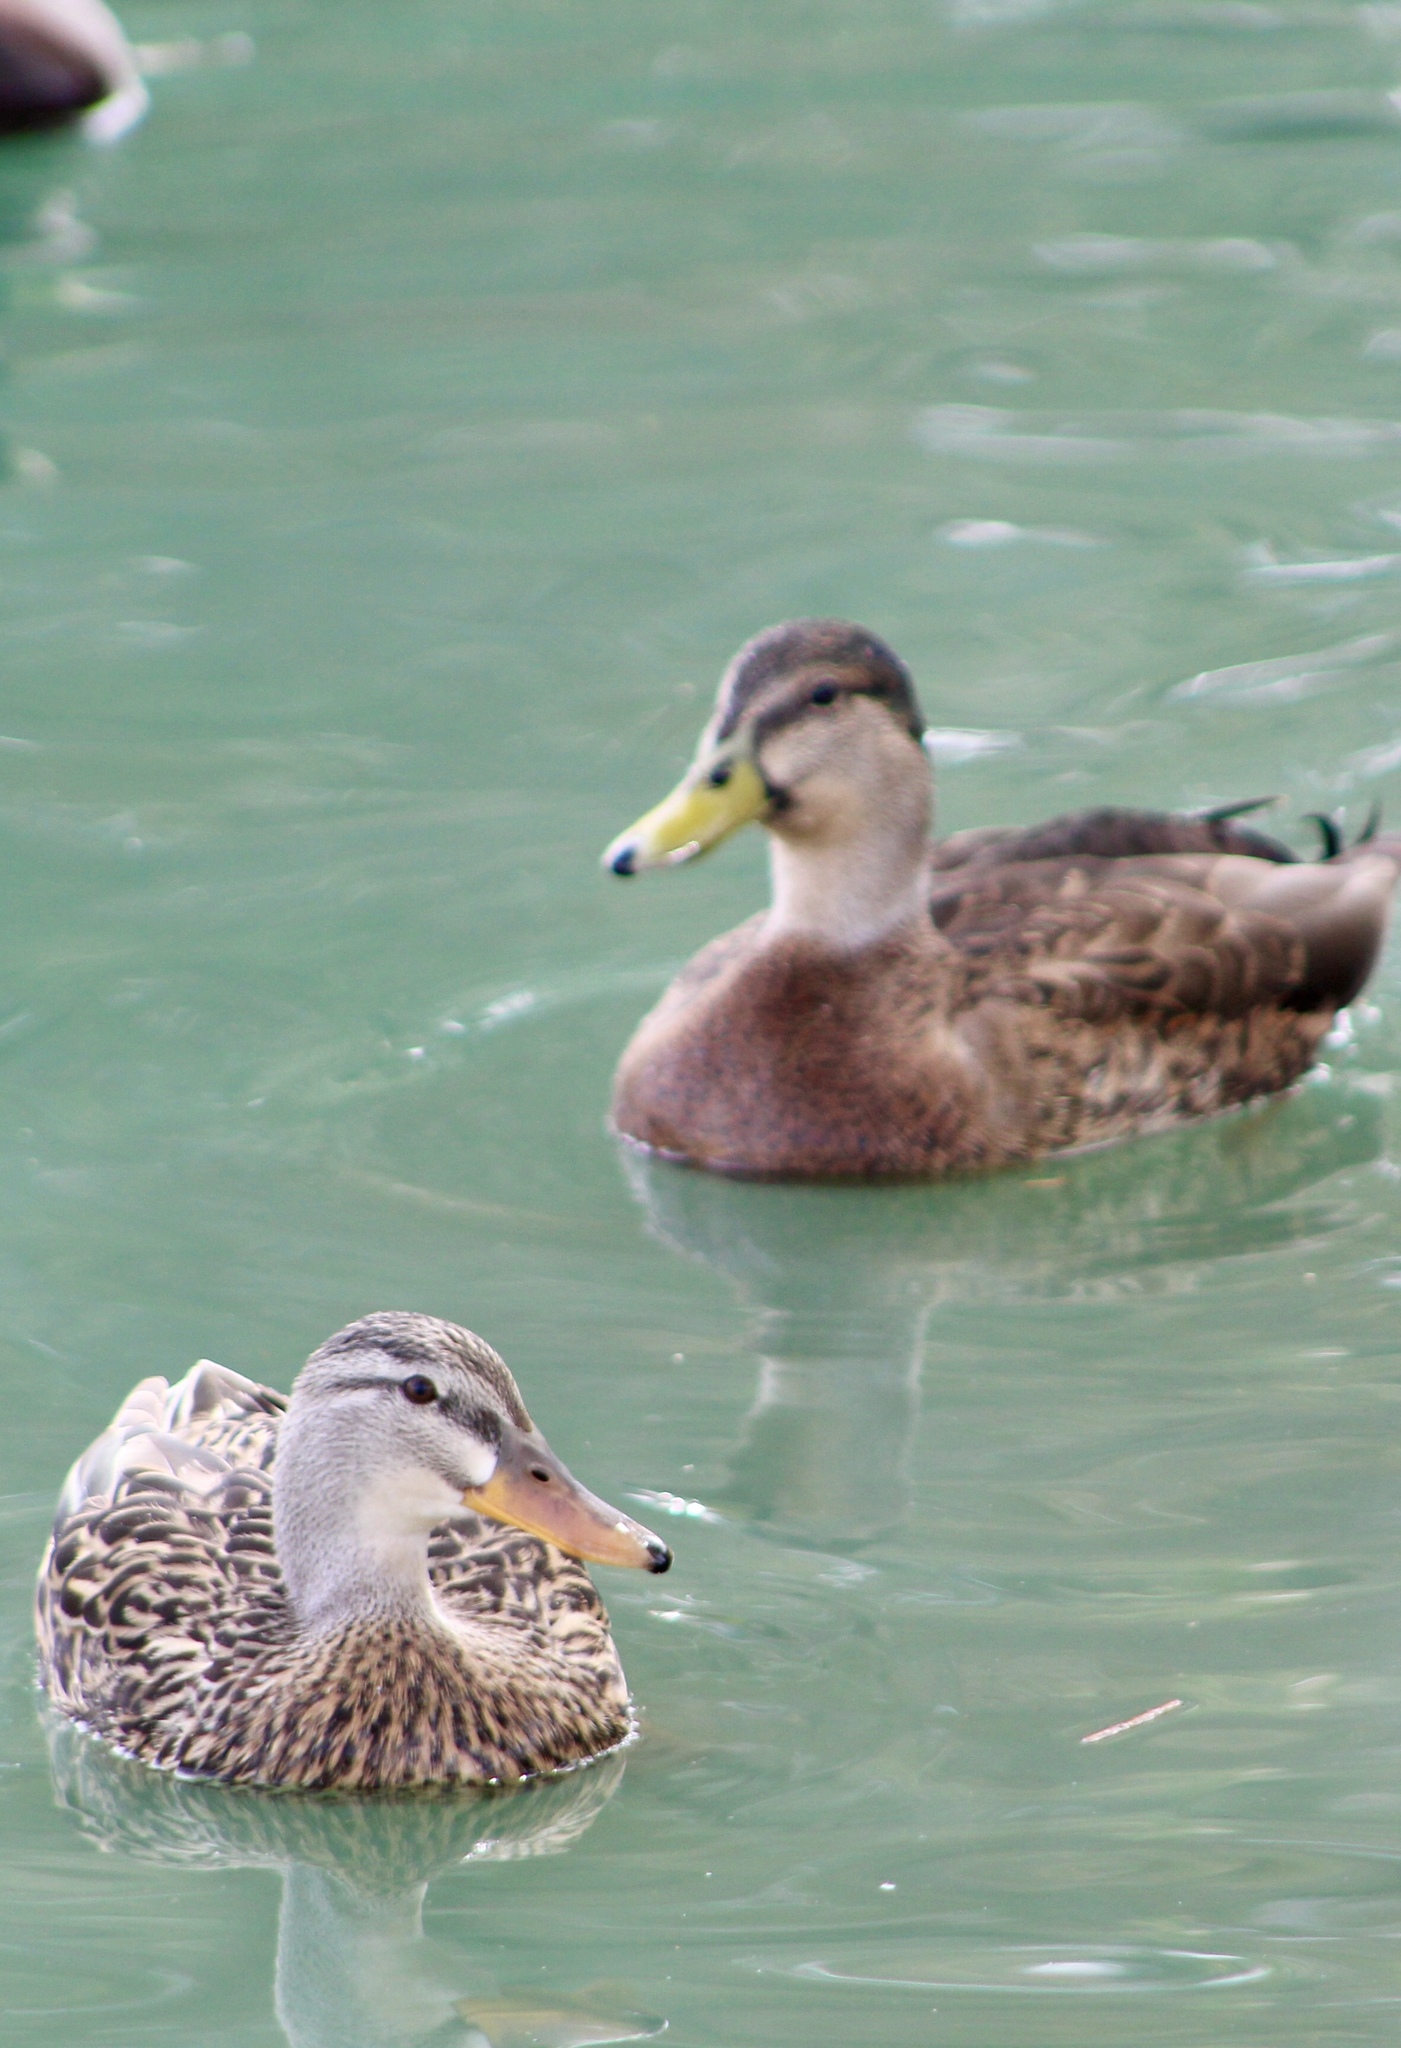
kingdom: Animalia
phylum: Chordata
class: Aves
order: Anseriformes
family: Anatidae
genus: Anas
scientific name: Anas
